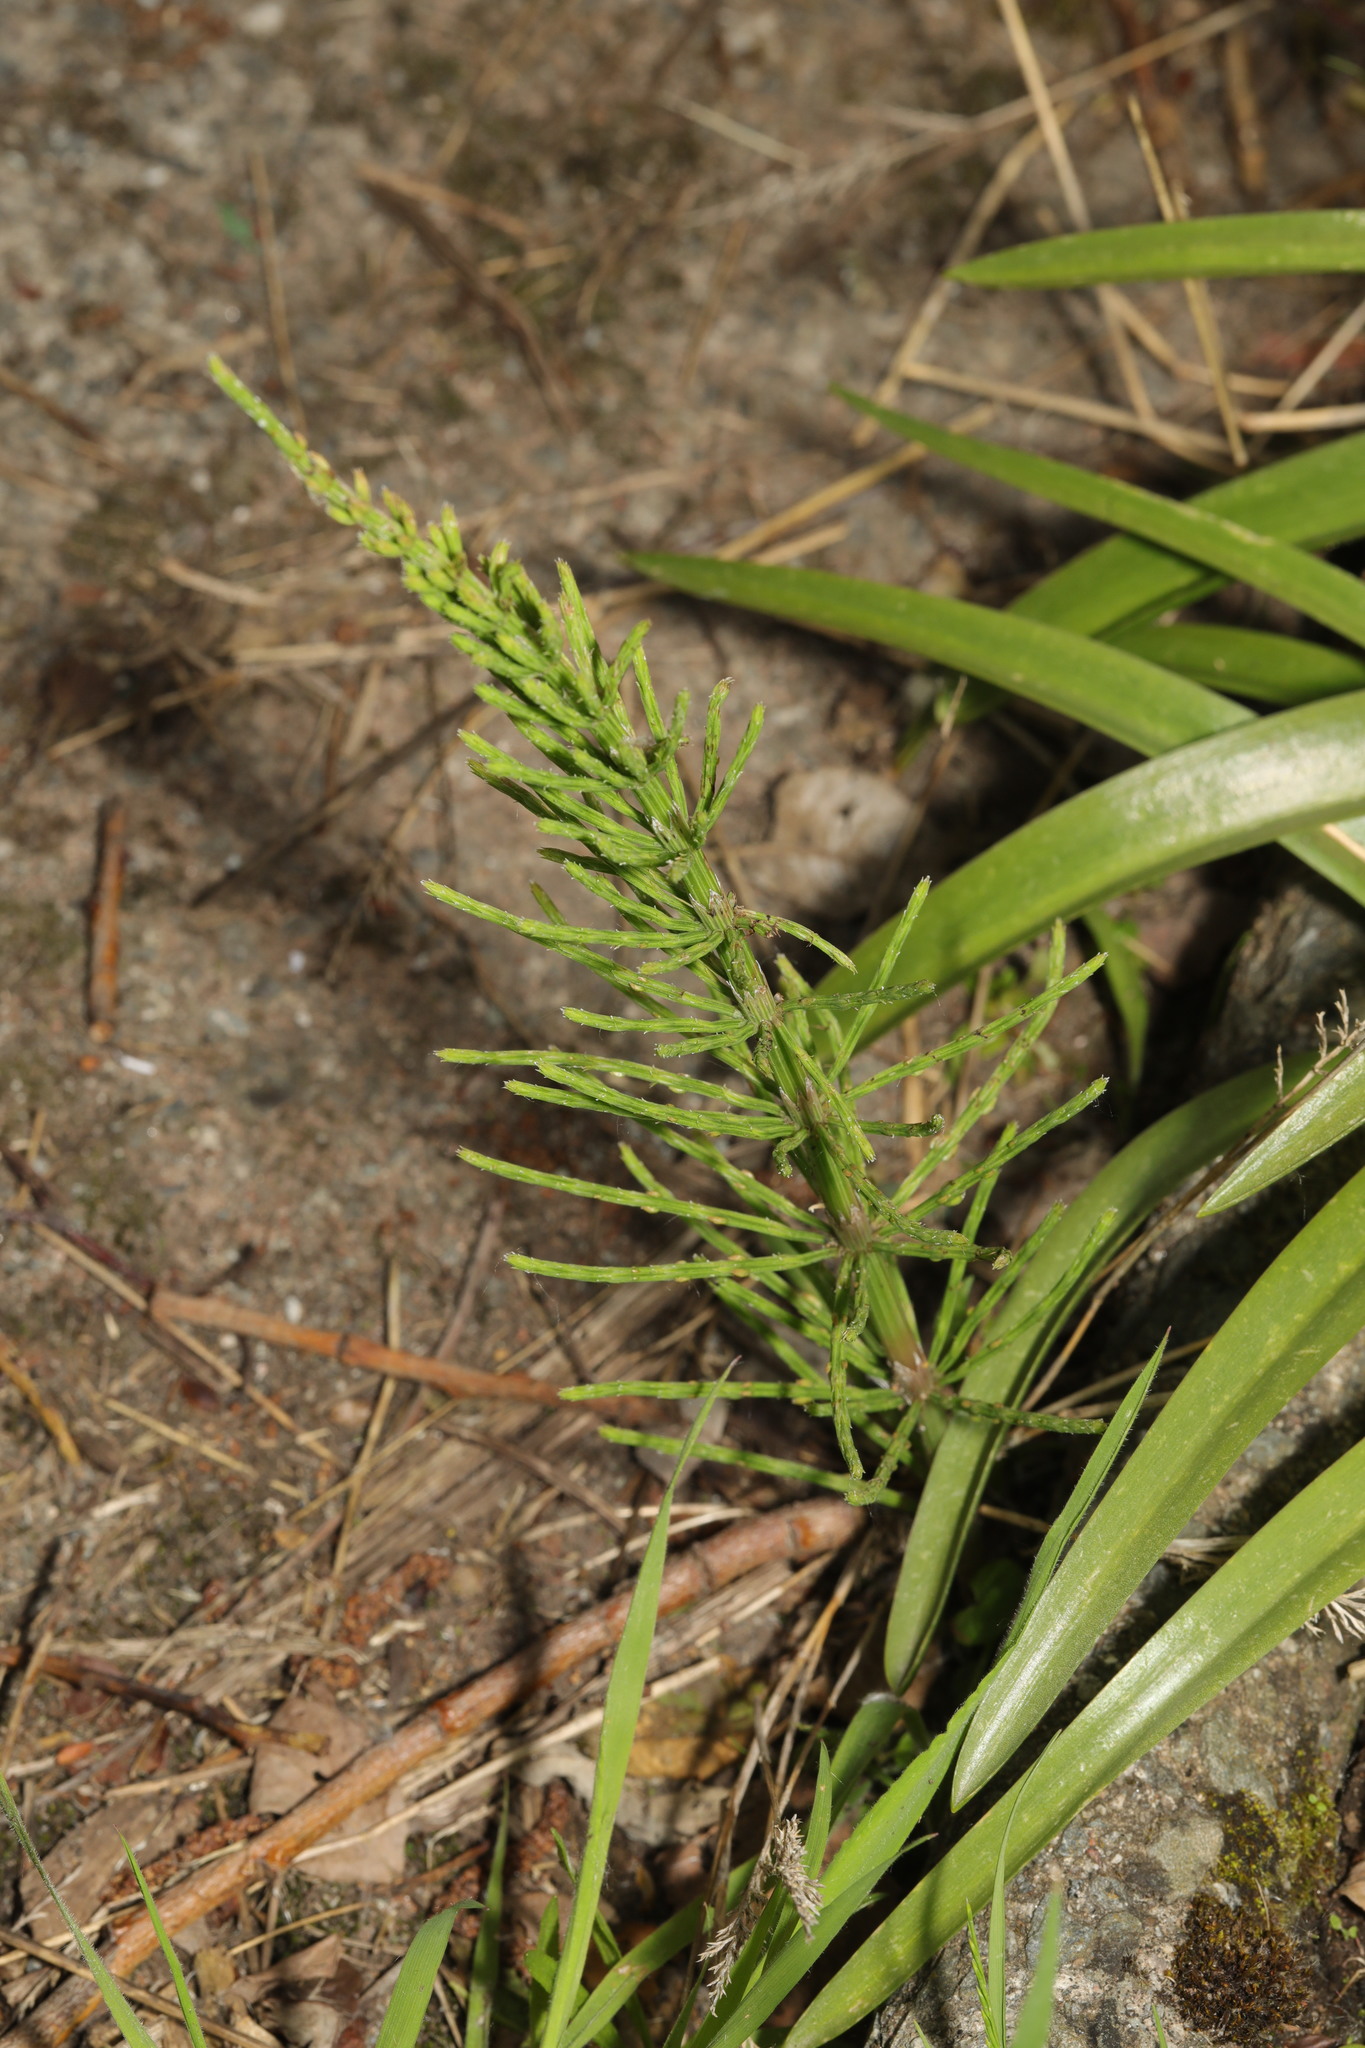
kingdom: Plantae
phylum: Tracheophyta
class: Polypodiopsida
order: Equisetales
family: Equisetaceae
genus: Equisetum
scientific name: Equisetum arvense
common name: Field horsetail
